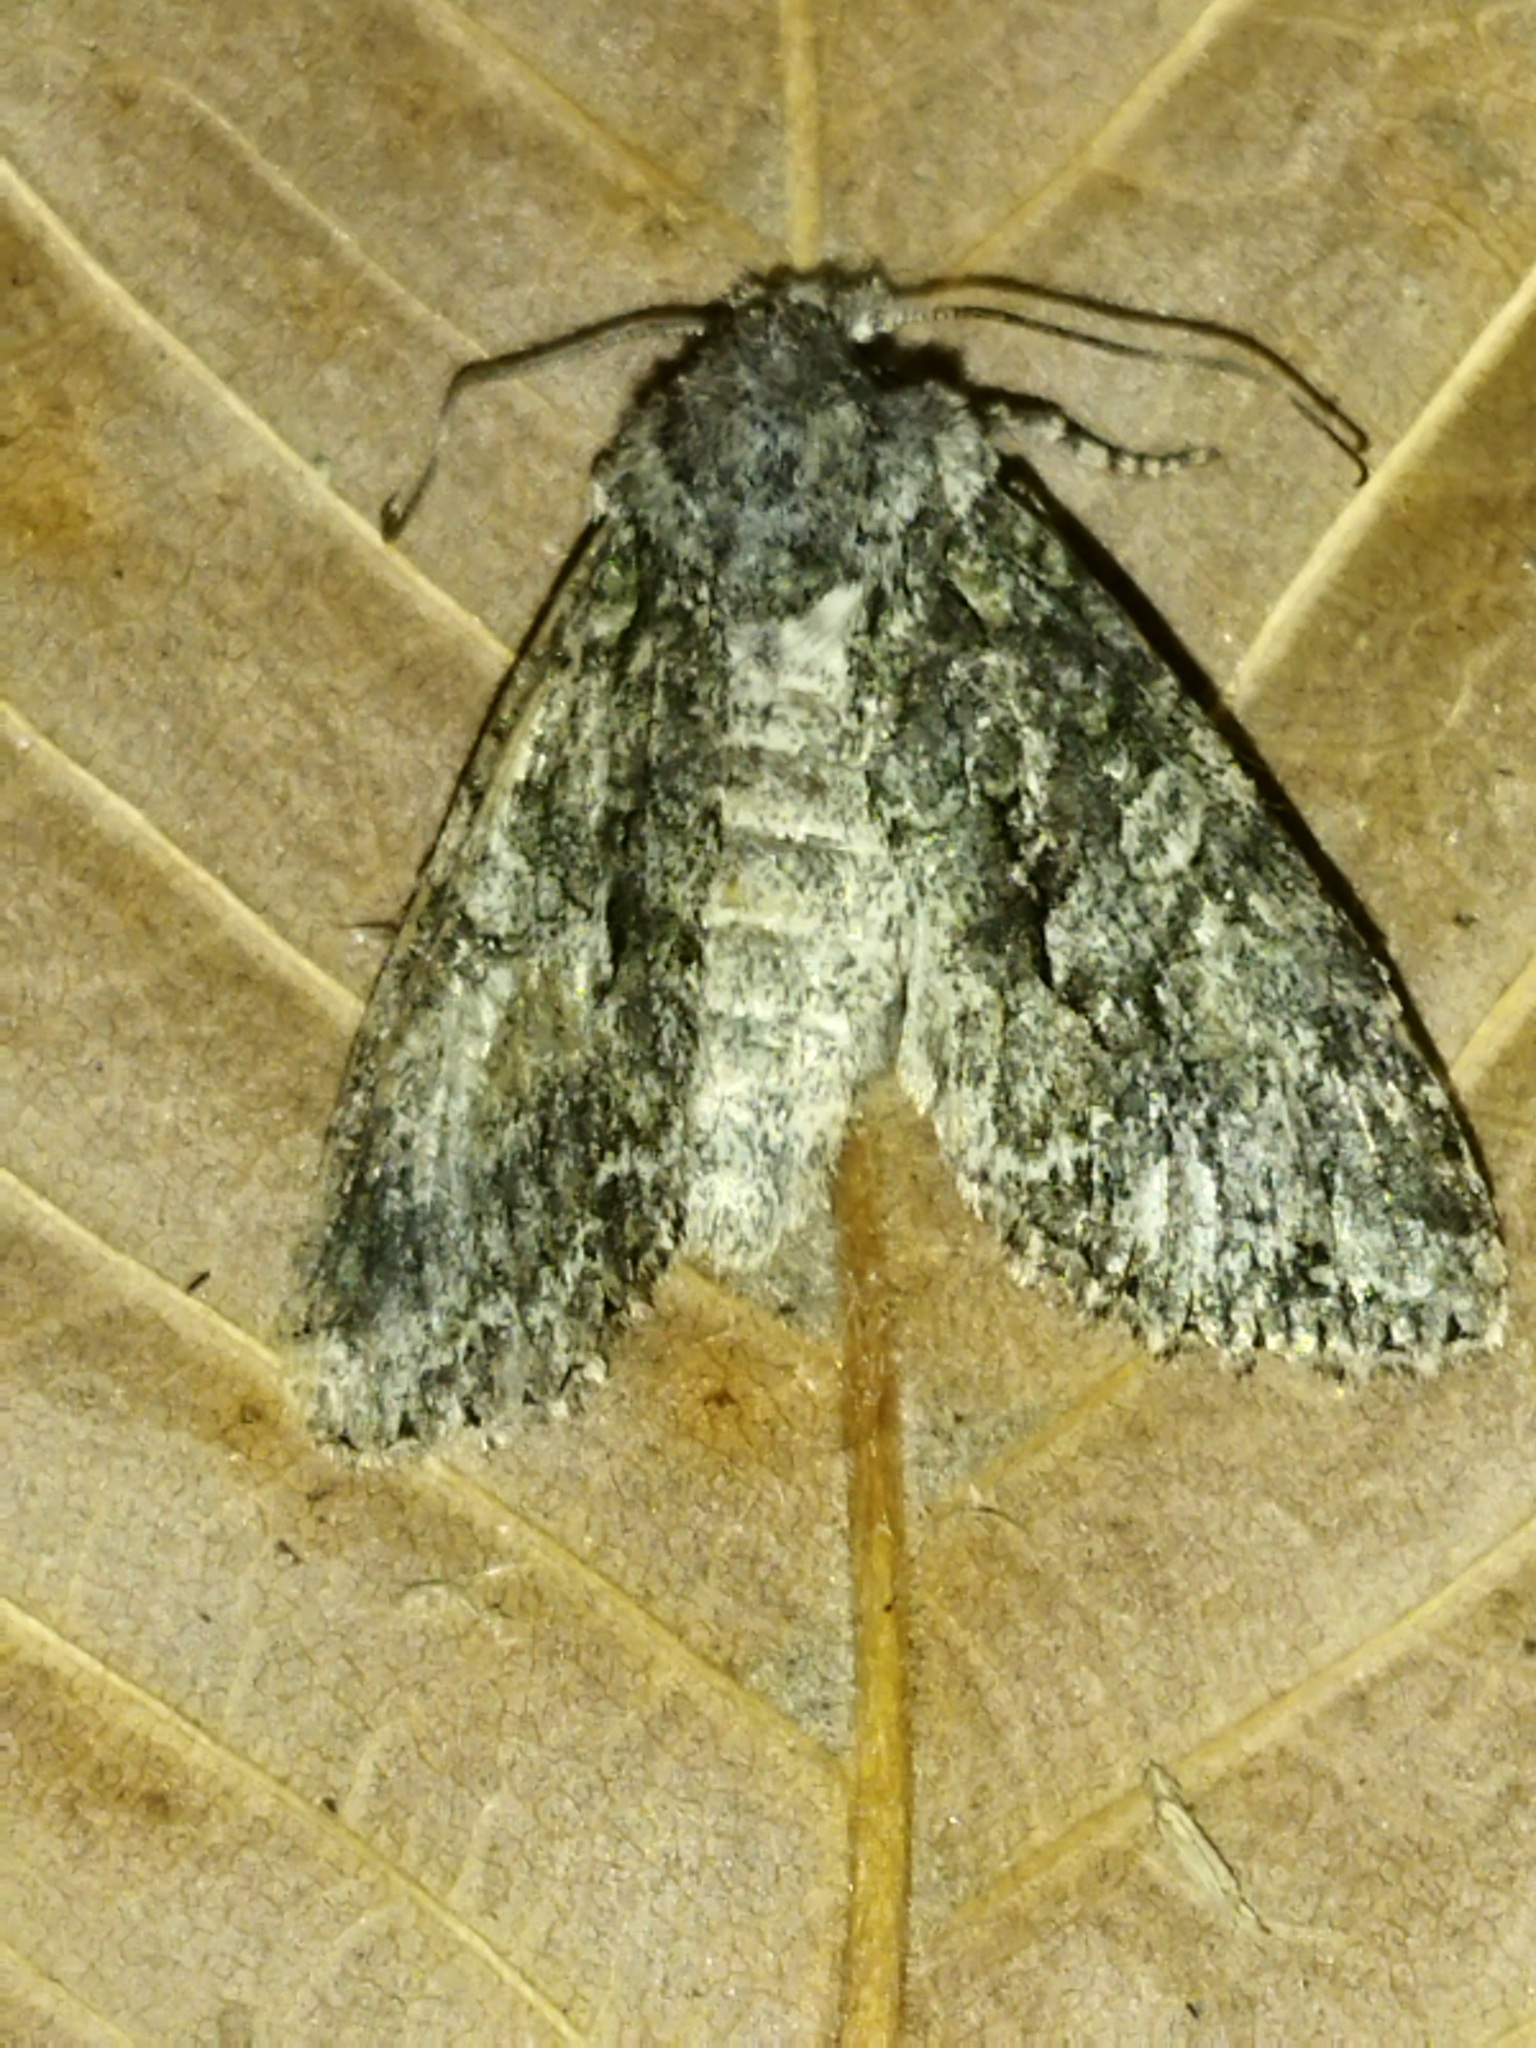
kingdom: Animalia
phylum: Arthropoda
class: Insecta
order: Lepidoptera
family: Noctuidae
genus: Dryobotodes
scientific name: Dryobotodes eremita
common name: Brindled green
